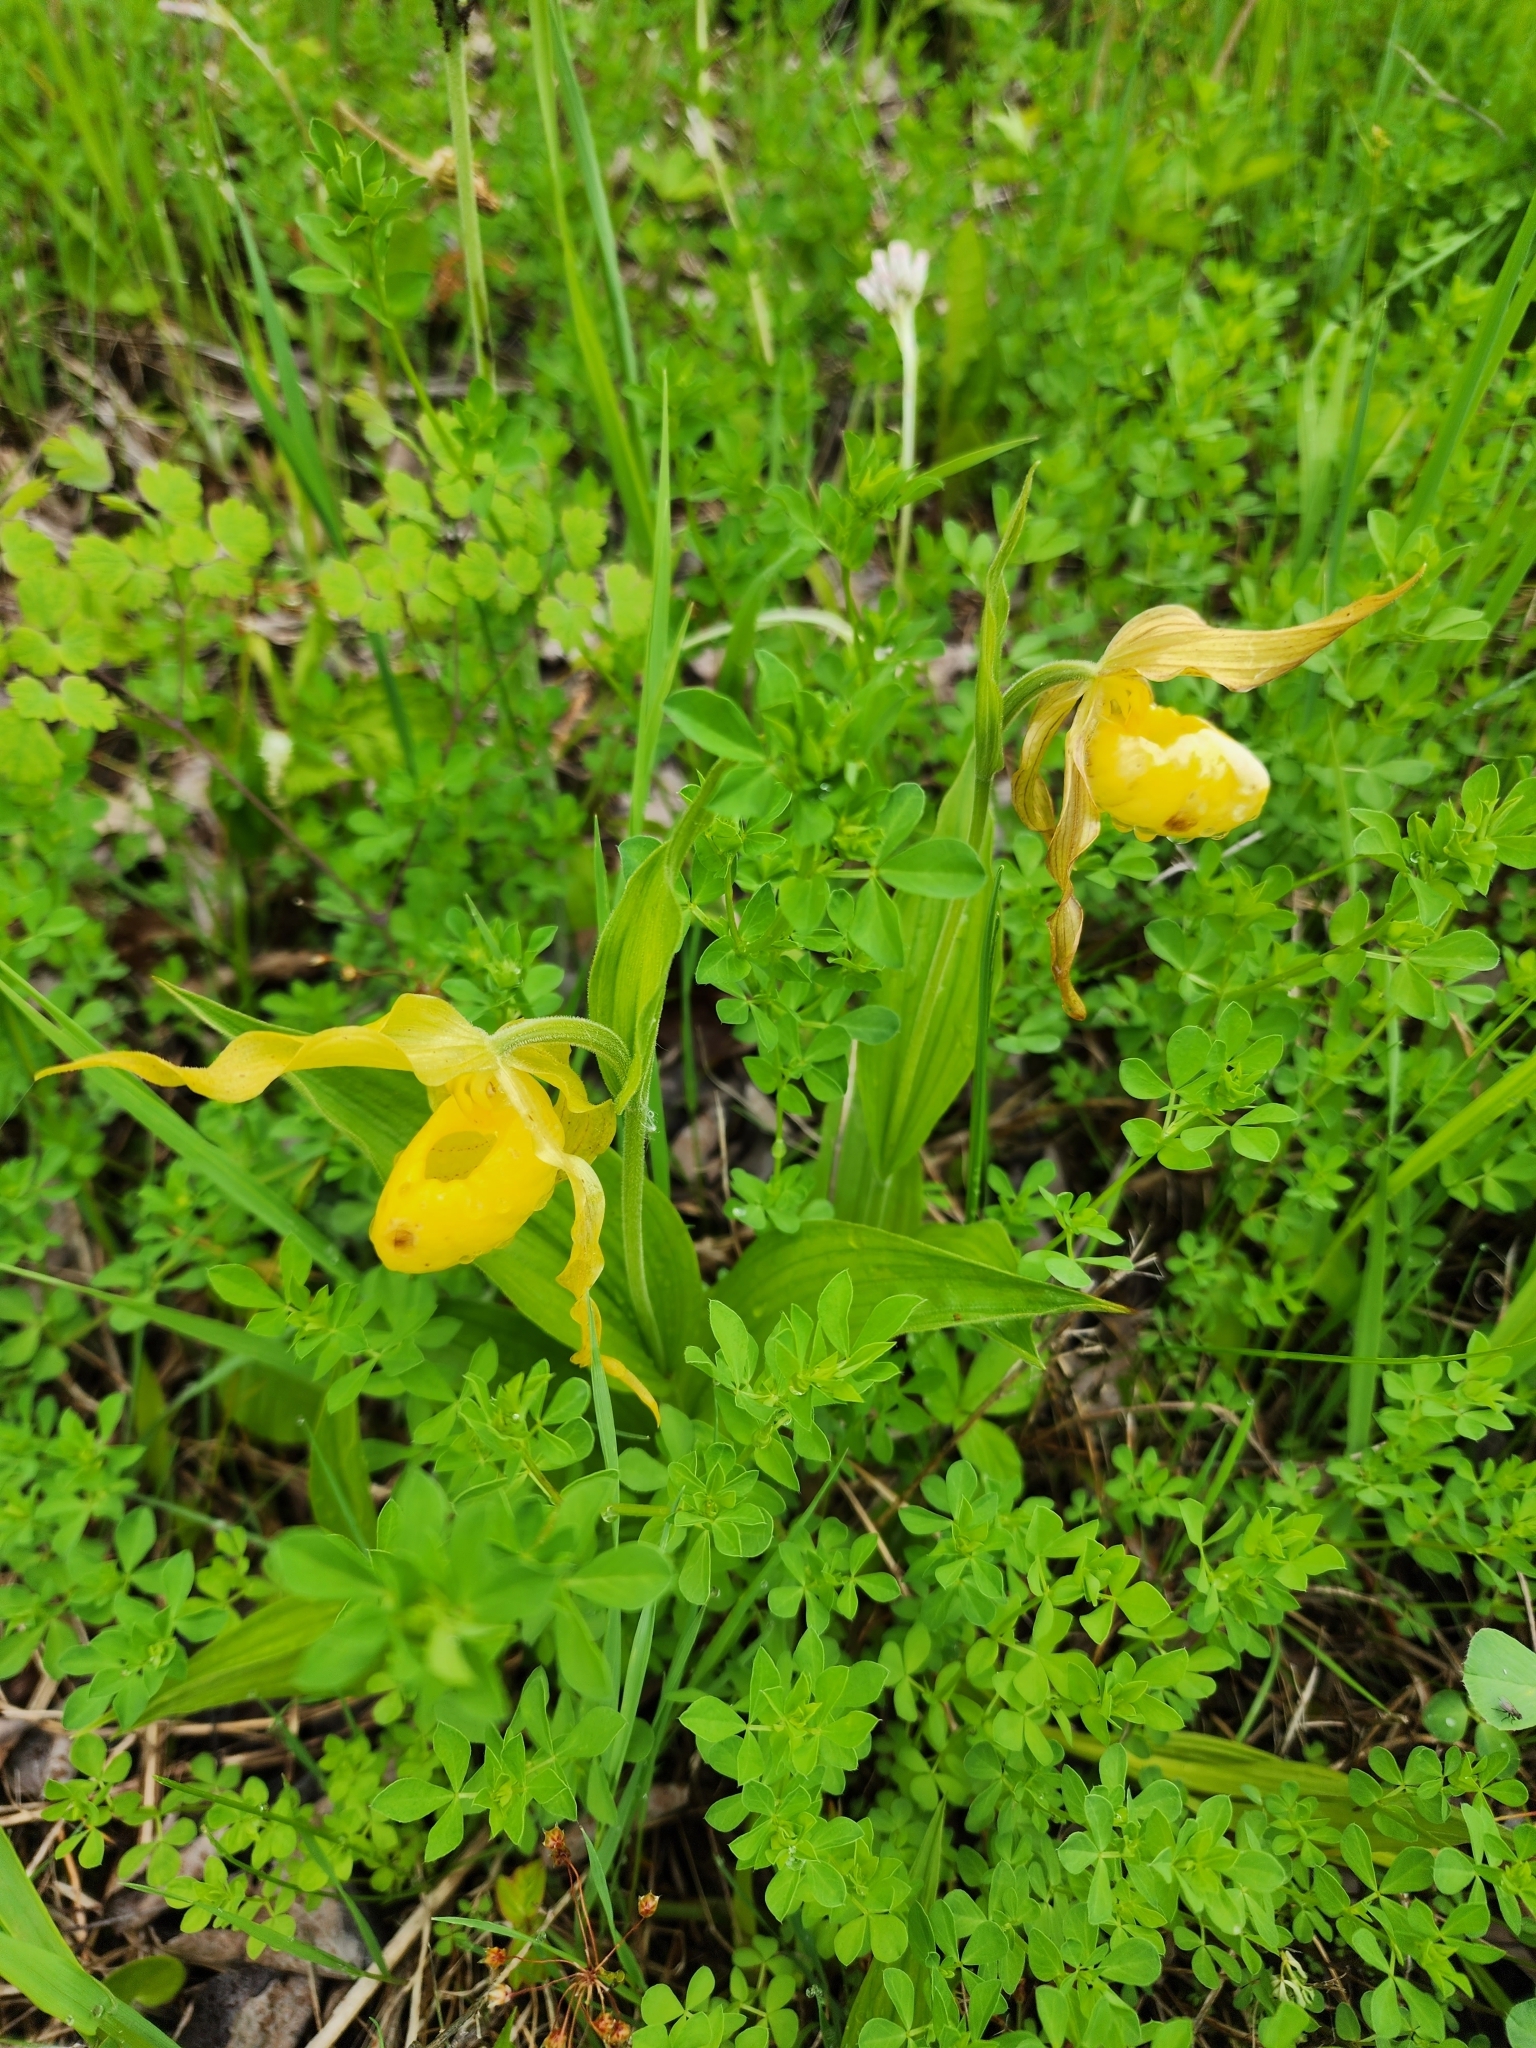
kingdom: Plantae
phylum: Tracheophyta
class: Liliopsida
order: Asparagales
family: Orchidaceae
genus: Cypripedium
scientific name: Cypripedium parviflorum
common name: American yellow lady's-slipper
